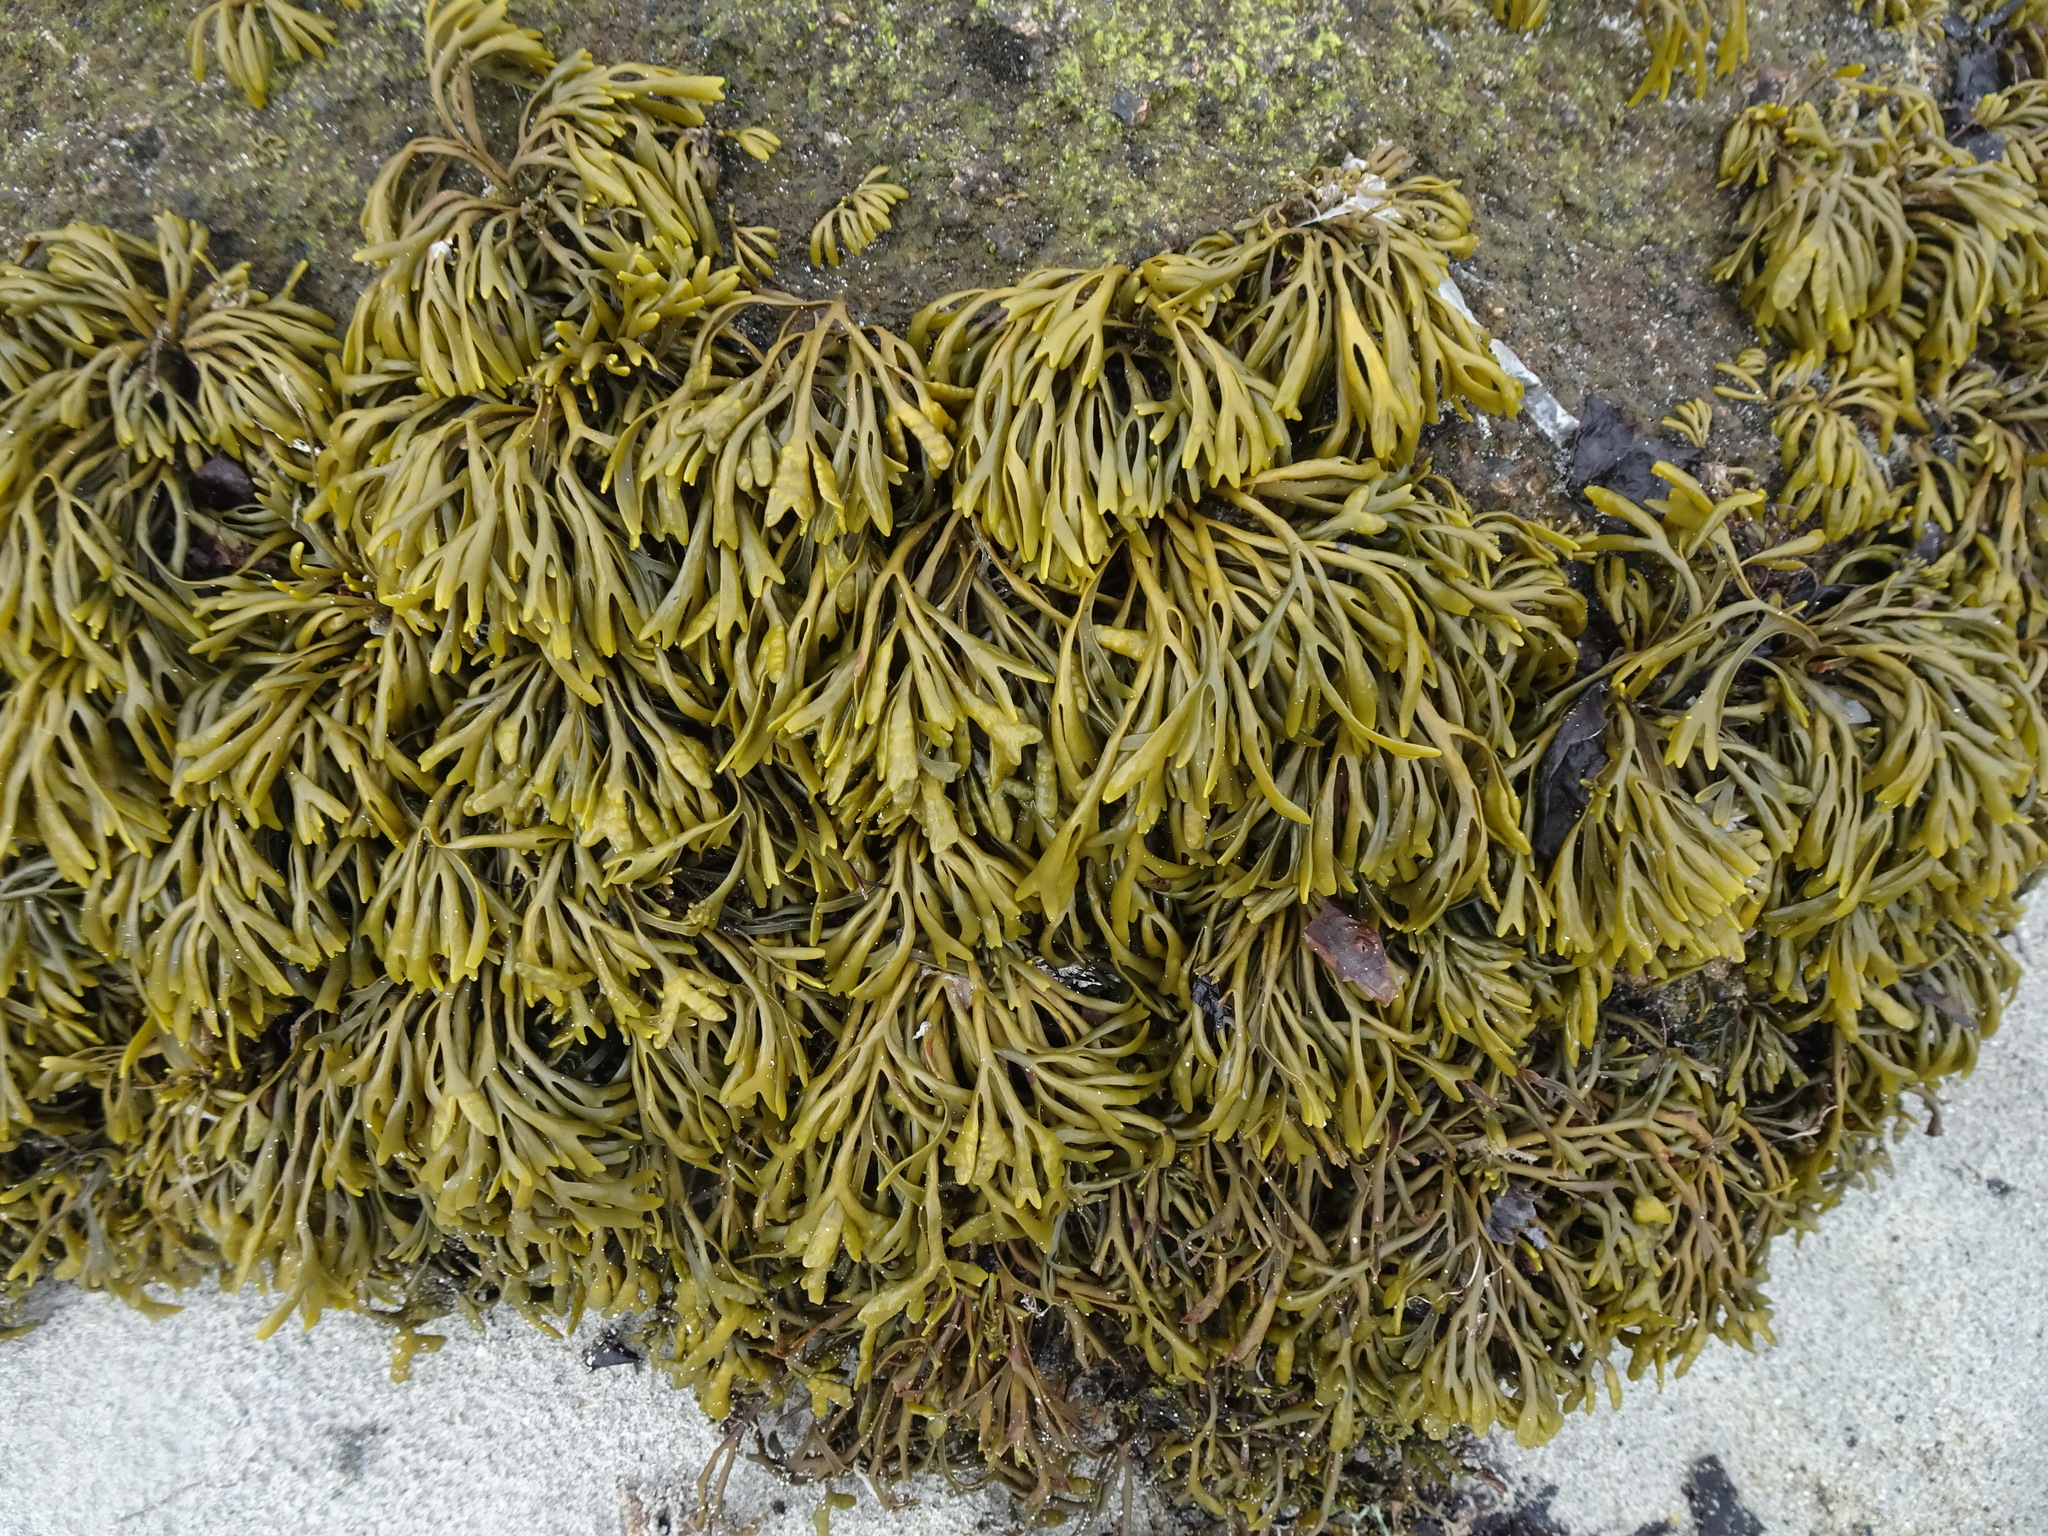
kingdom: Chromista
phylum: Ochrophyta
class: Phaeophyceae
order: Fucales
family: Fucaceae
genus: Pelvetia
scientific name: Pelvetia canaliculata
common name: Channelled wrack
